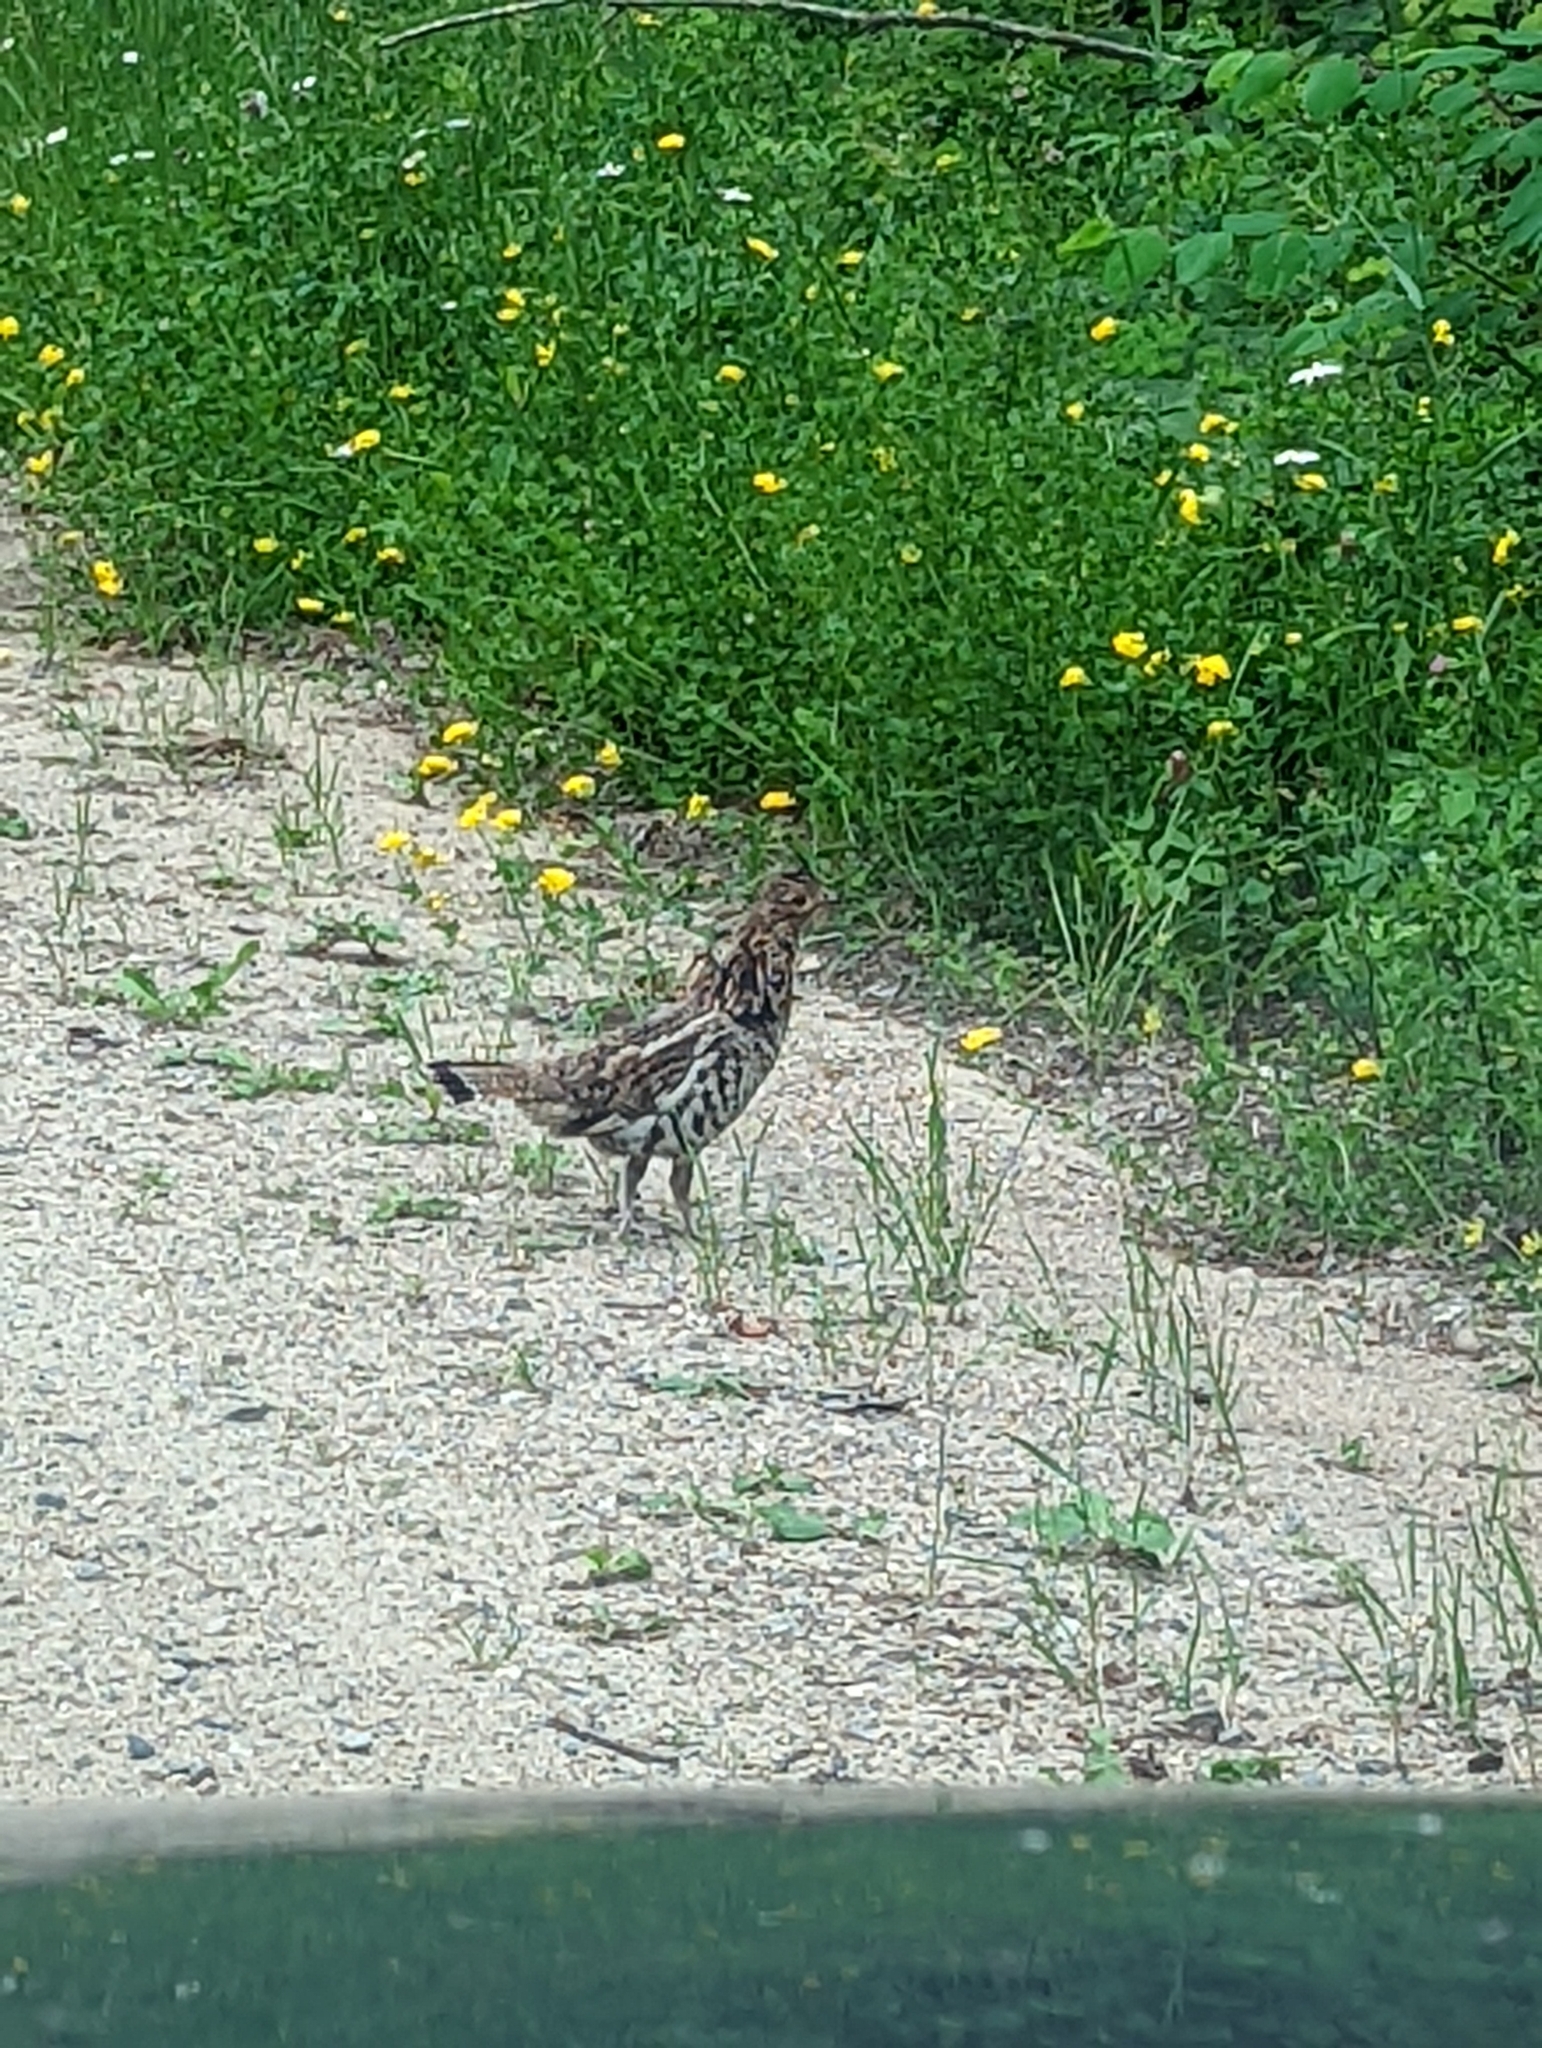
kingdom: Animalia
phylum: Chordata
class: Aves
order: Galliformes
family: Phasianidae
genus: Bonasa
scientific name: Bonasa umbellus
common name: Ruffed grouse
